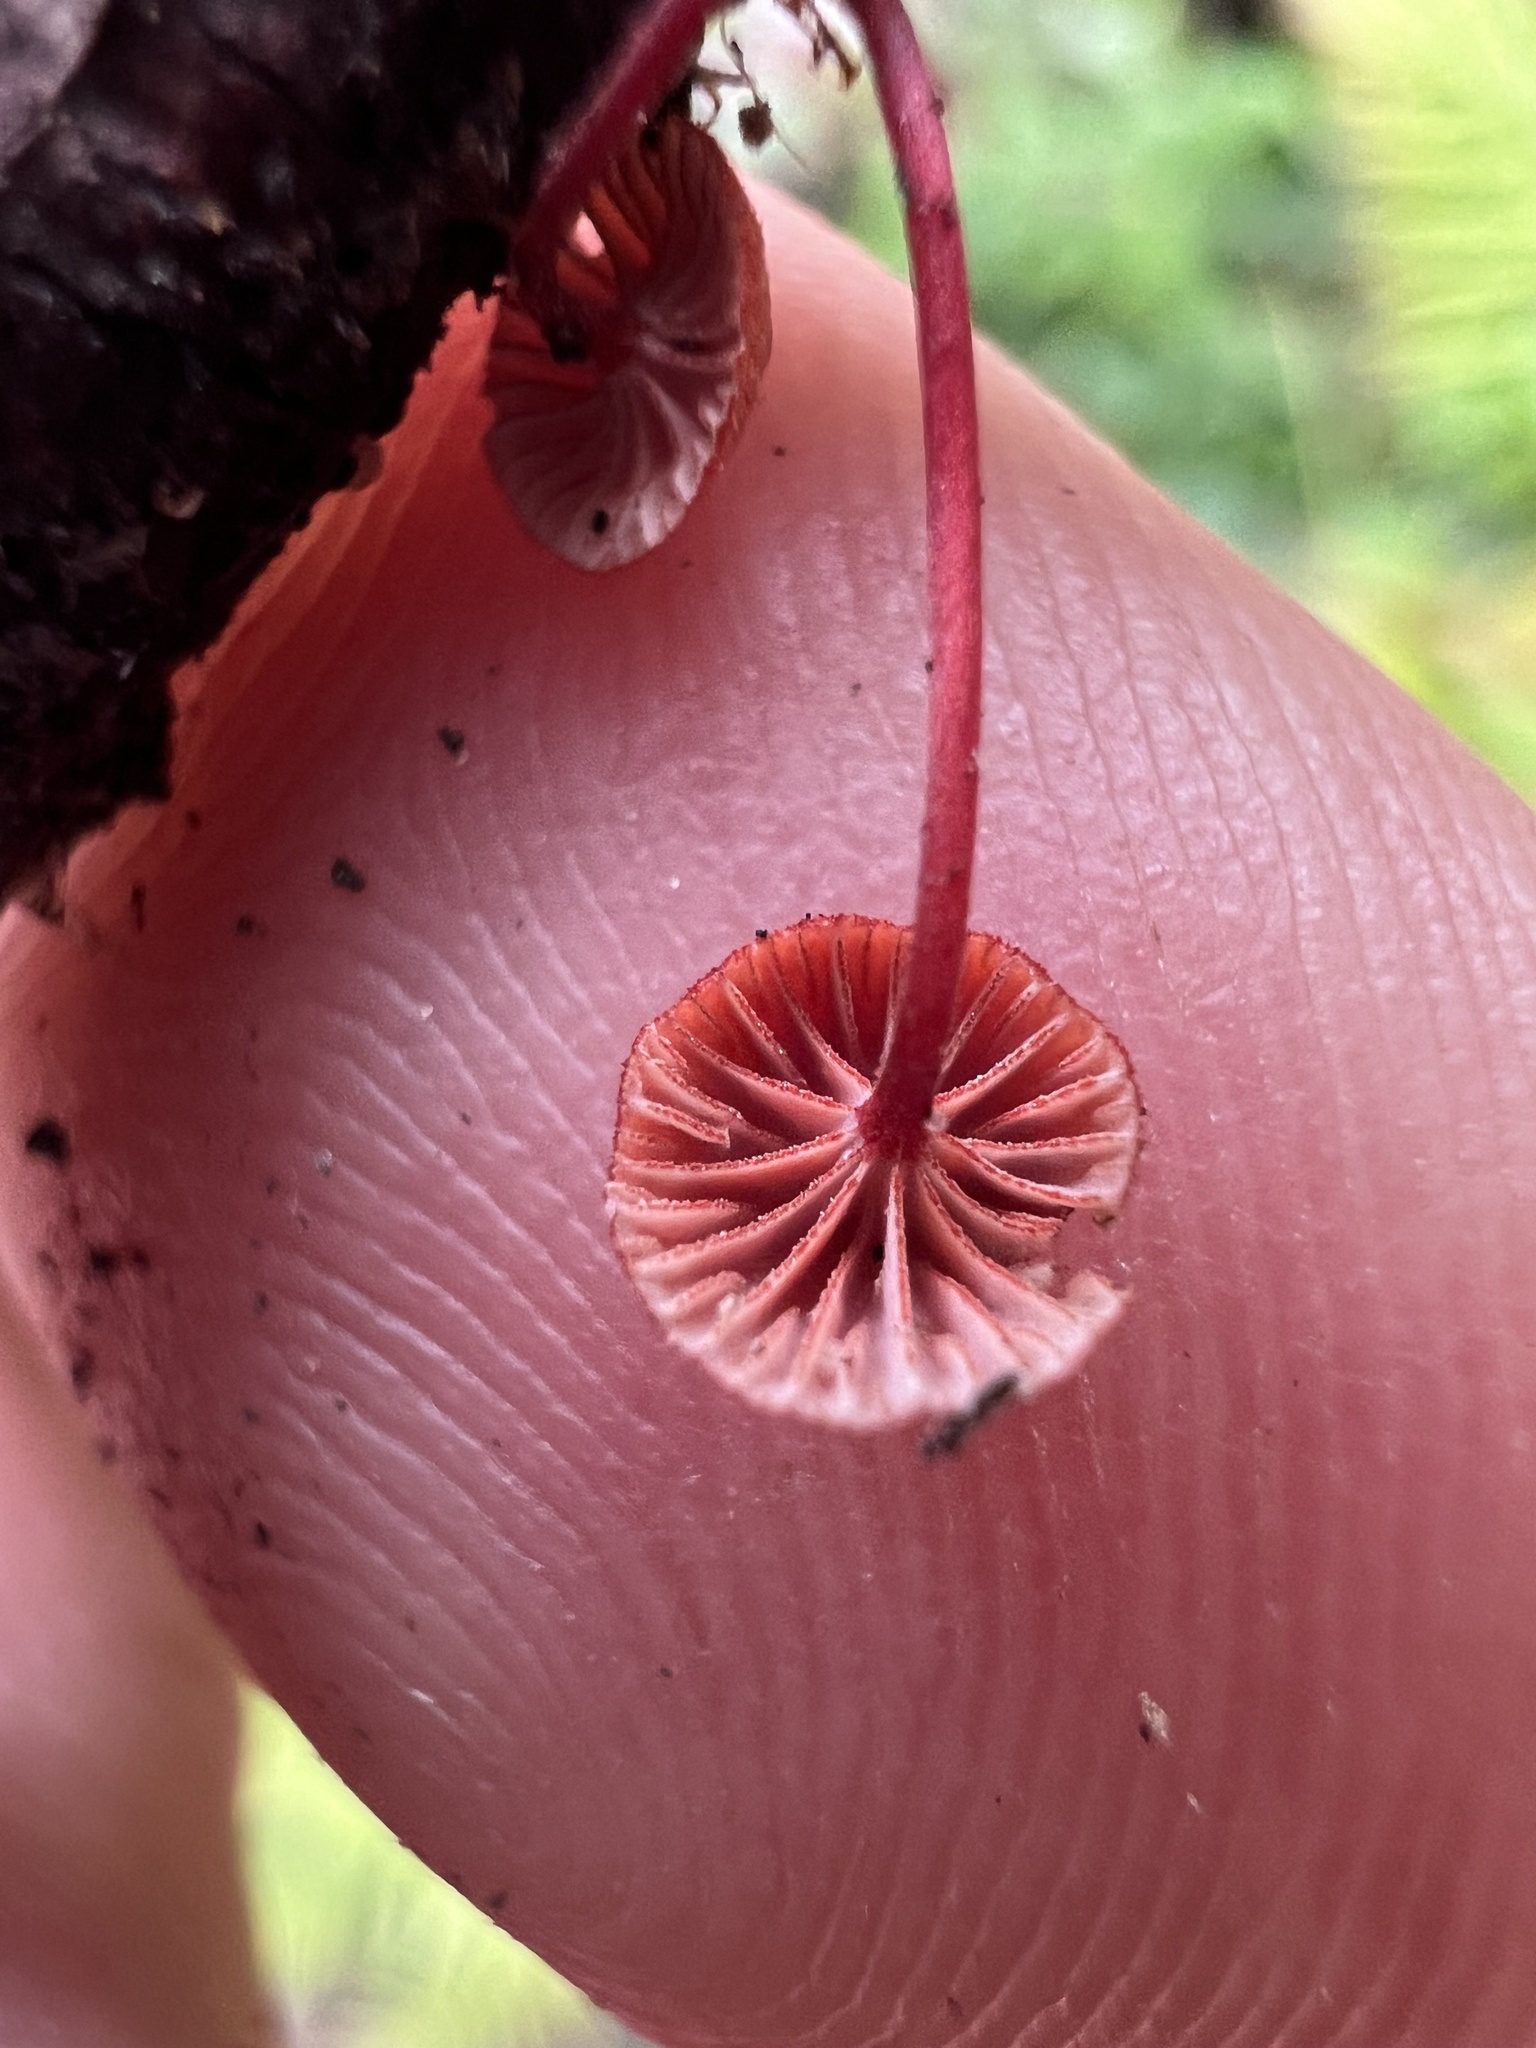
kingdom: Fungi
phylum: Basidiomycota
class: Agaricomycetes
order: Agaricales
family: Mycenaceae
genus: Cruentomycena
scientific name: Cruentomycena viscidocruenta
